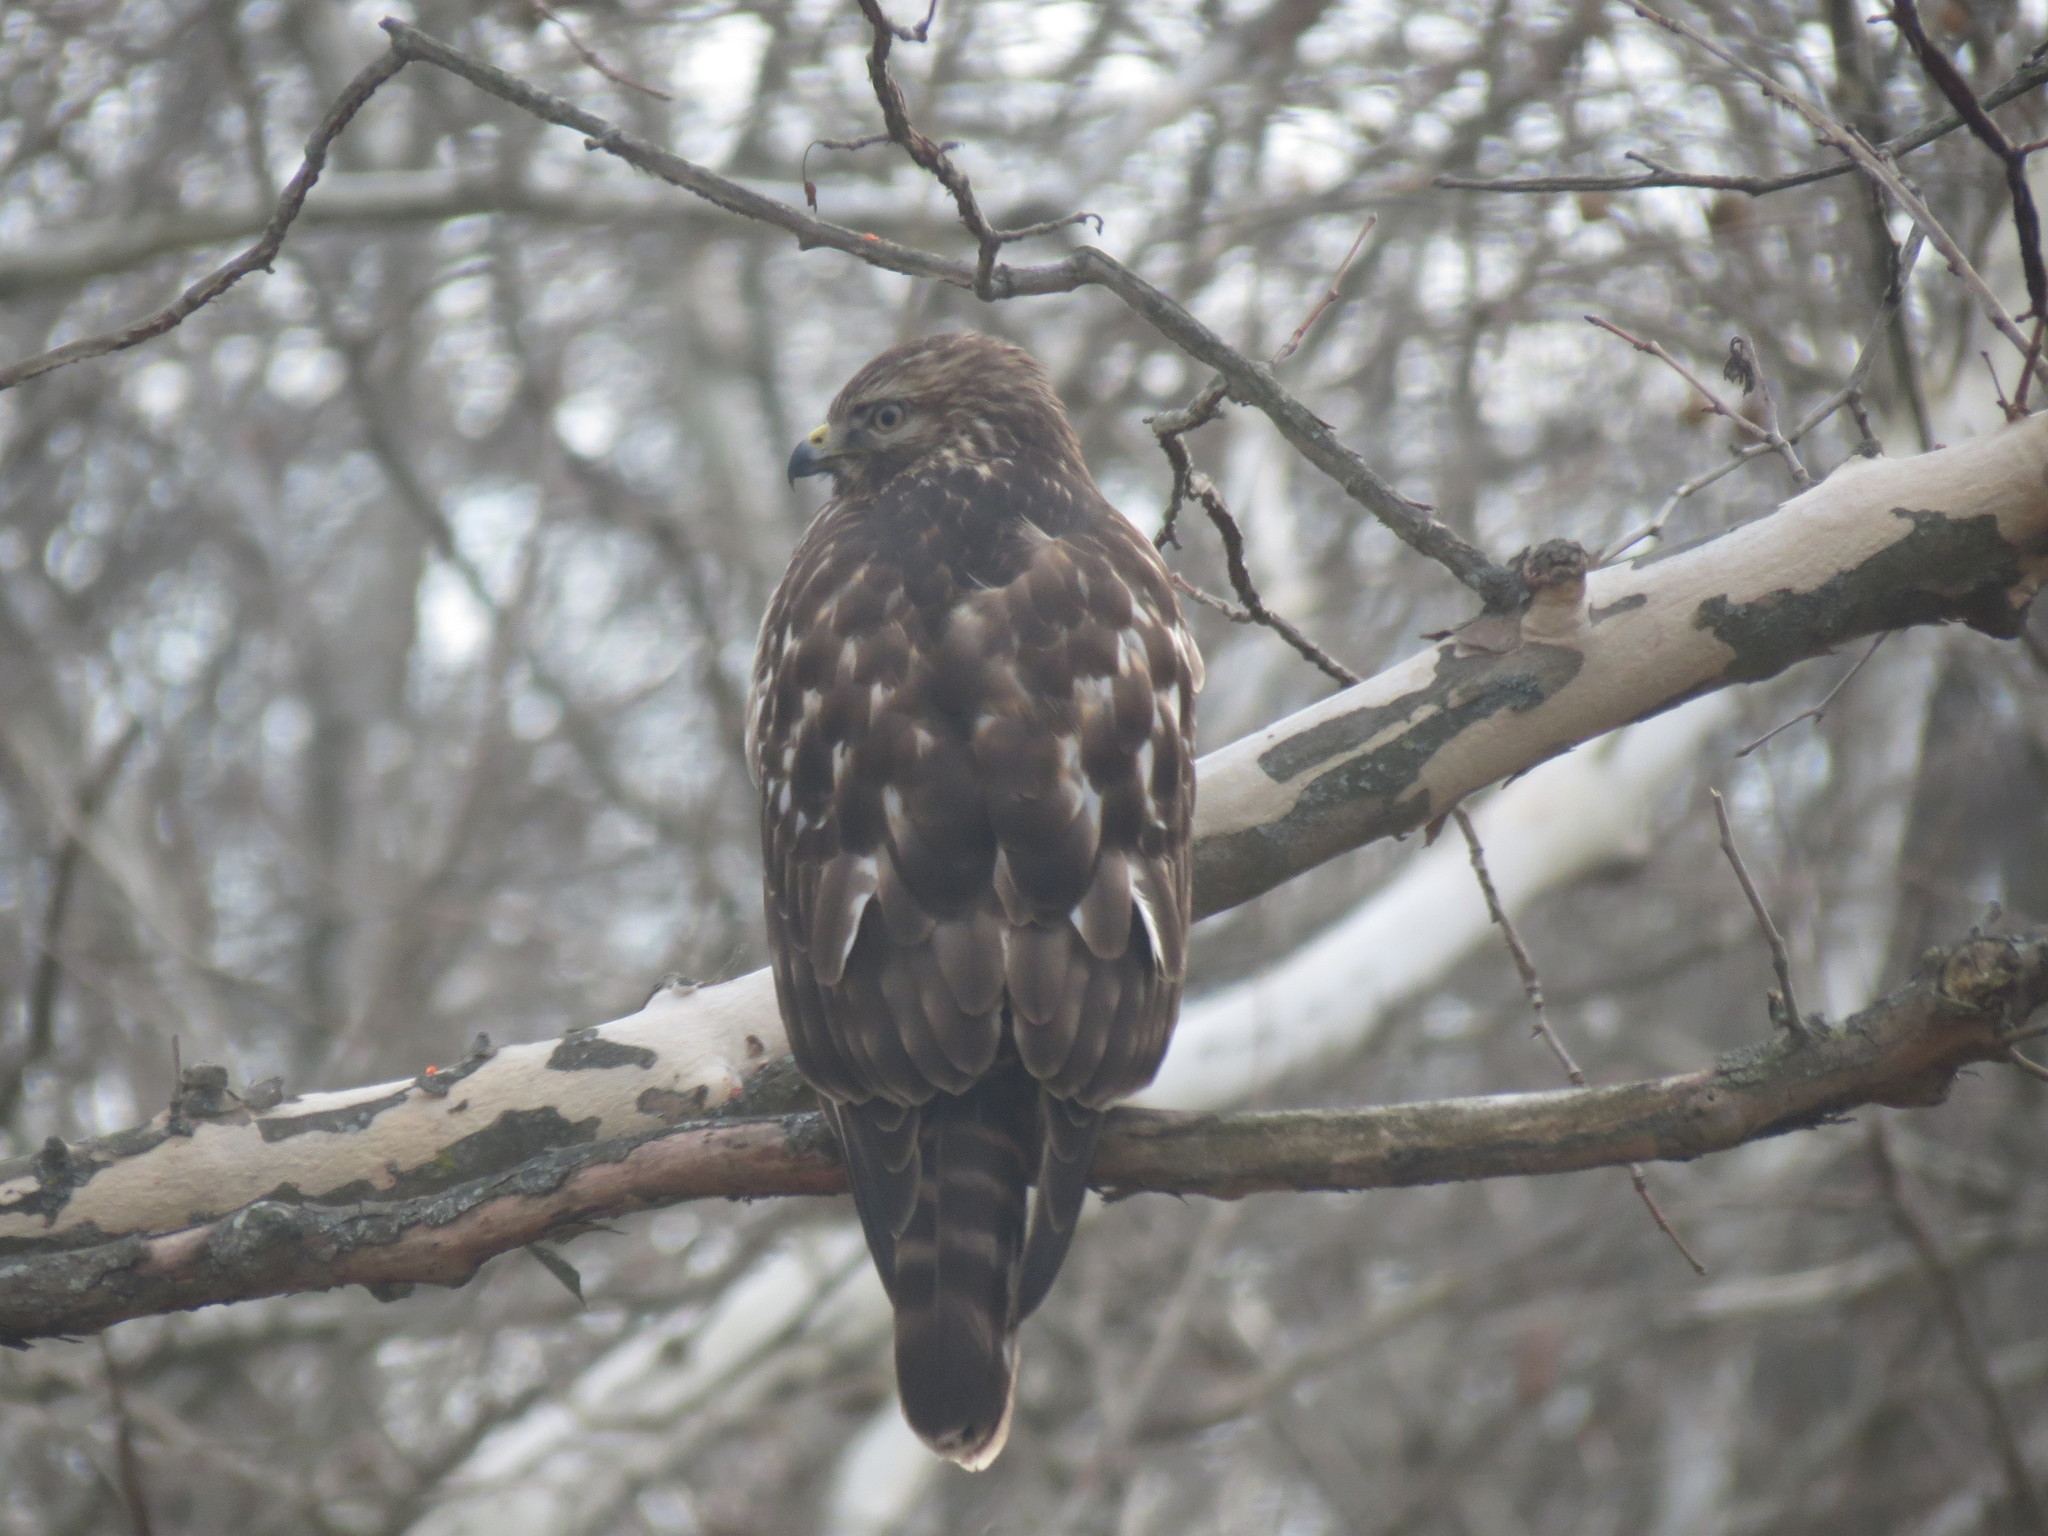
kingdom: Animalia
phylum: Chordata
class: Aves
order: Accipitriformes
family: Accipitridae
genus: Buteo
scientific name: Buteo lineatus
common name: Red-shouldered hawk
